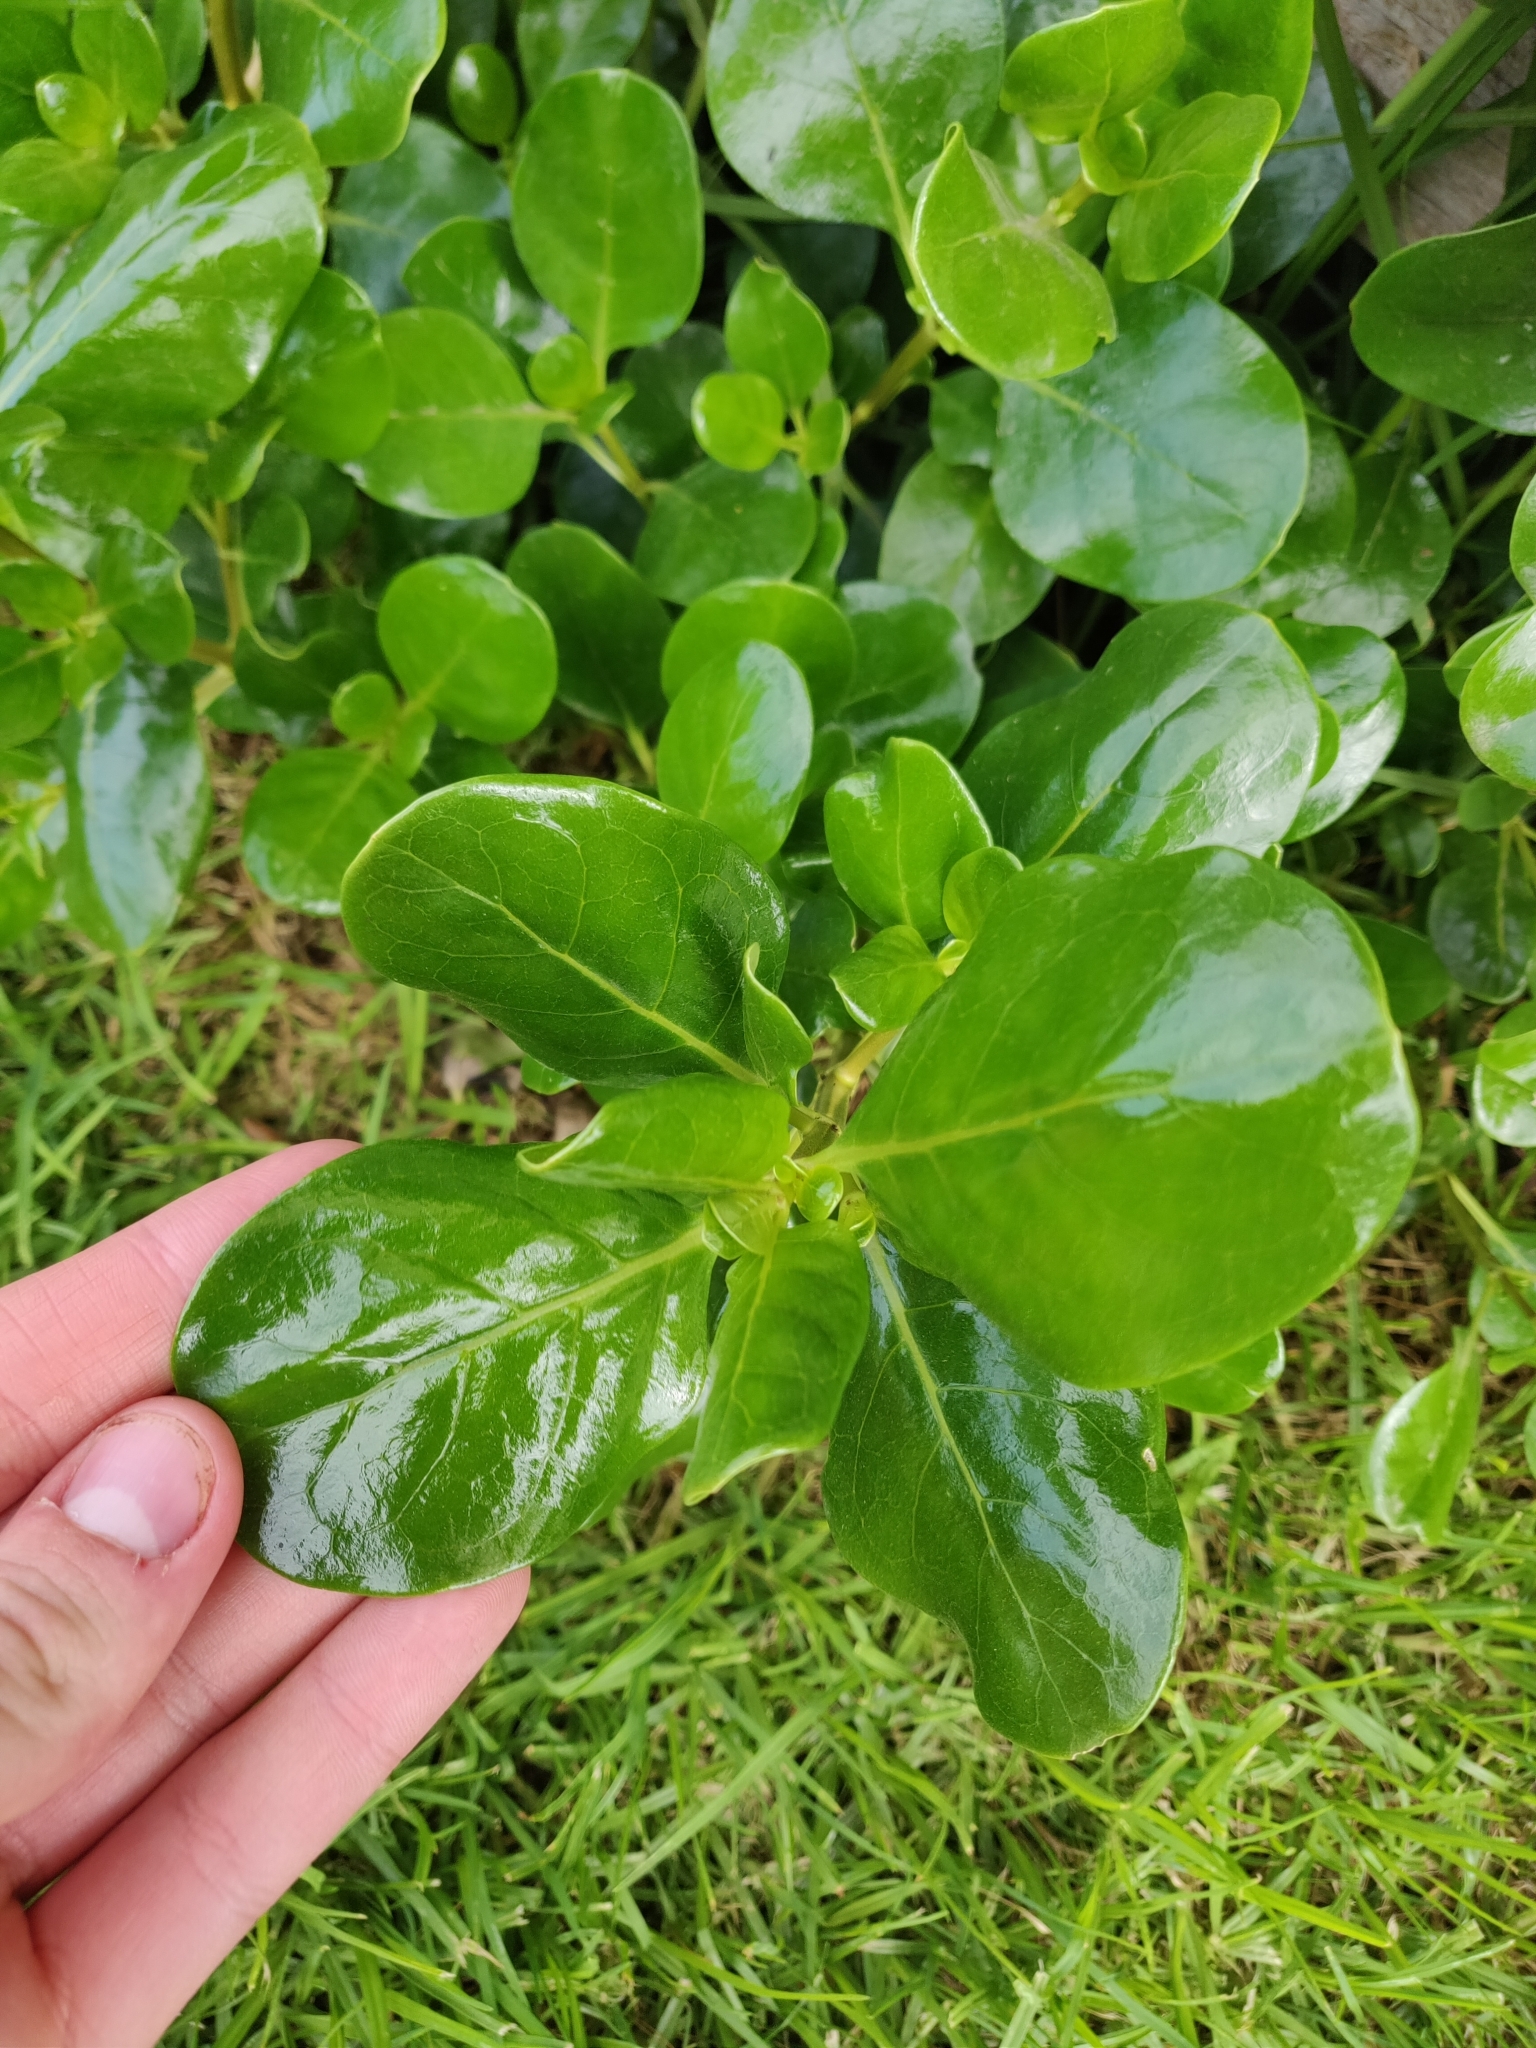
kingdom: Plantae
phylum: Tracheophyta
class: Magnoliopsida
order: Gentianales
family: Rubiaceae
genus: Coprosma
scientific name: Coprosma repens
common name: Tree bedstraw
